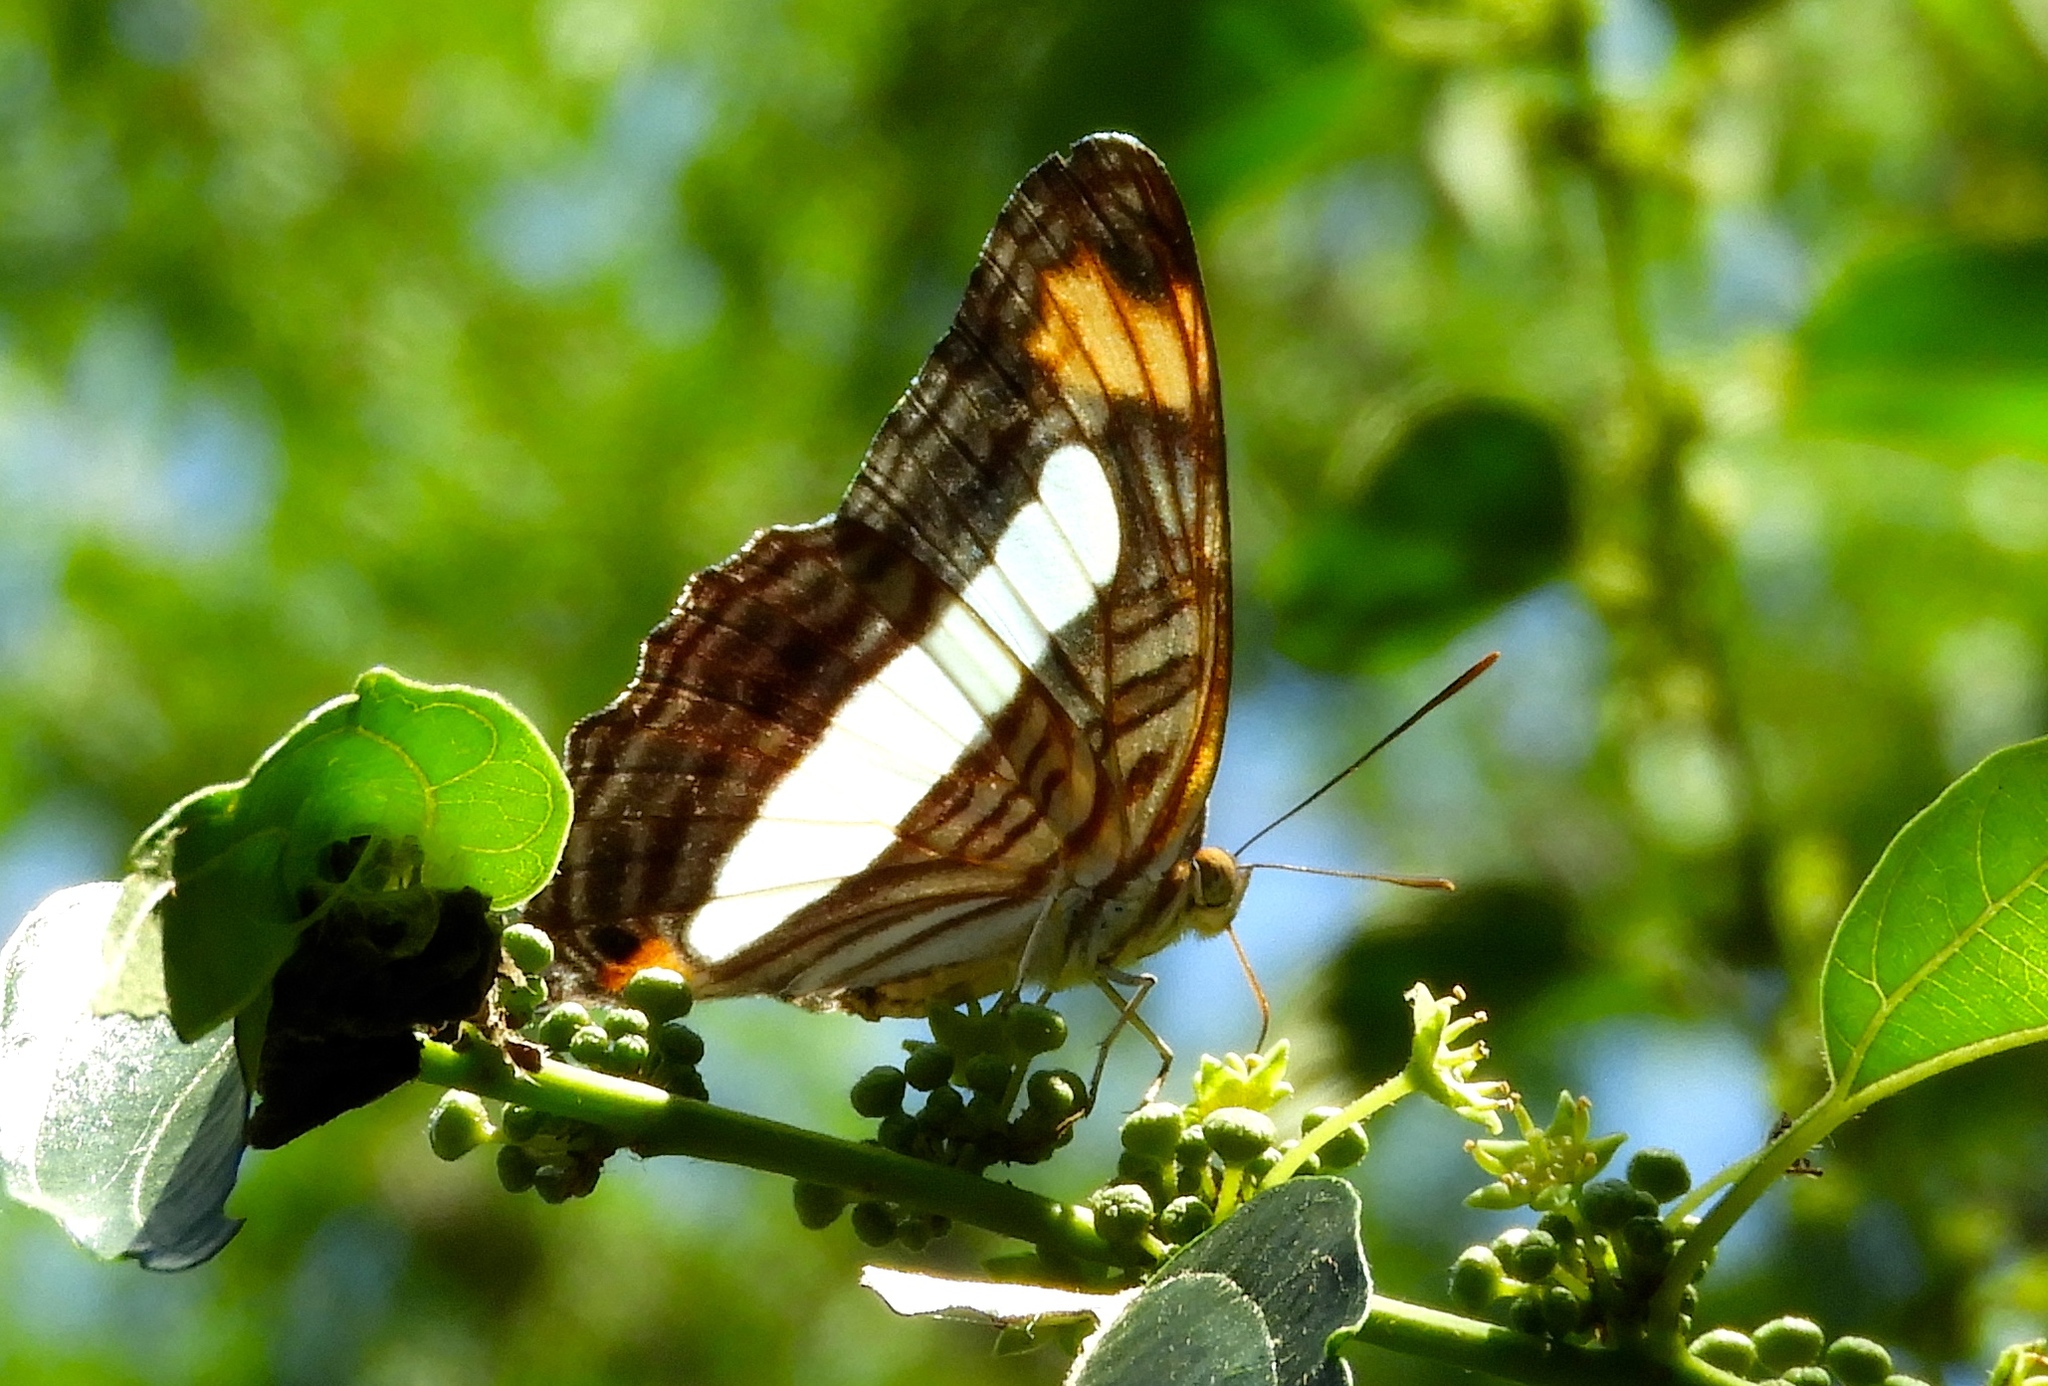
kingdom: Animalia
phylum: Arthropoda
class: Insecta
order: Lepidoptera
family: Nymphalidae
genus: Limenitis
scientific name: Limenitis iphiclus
